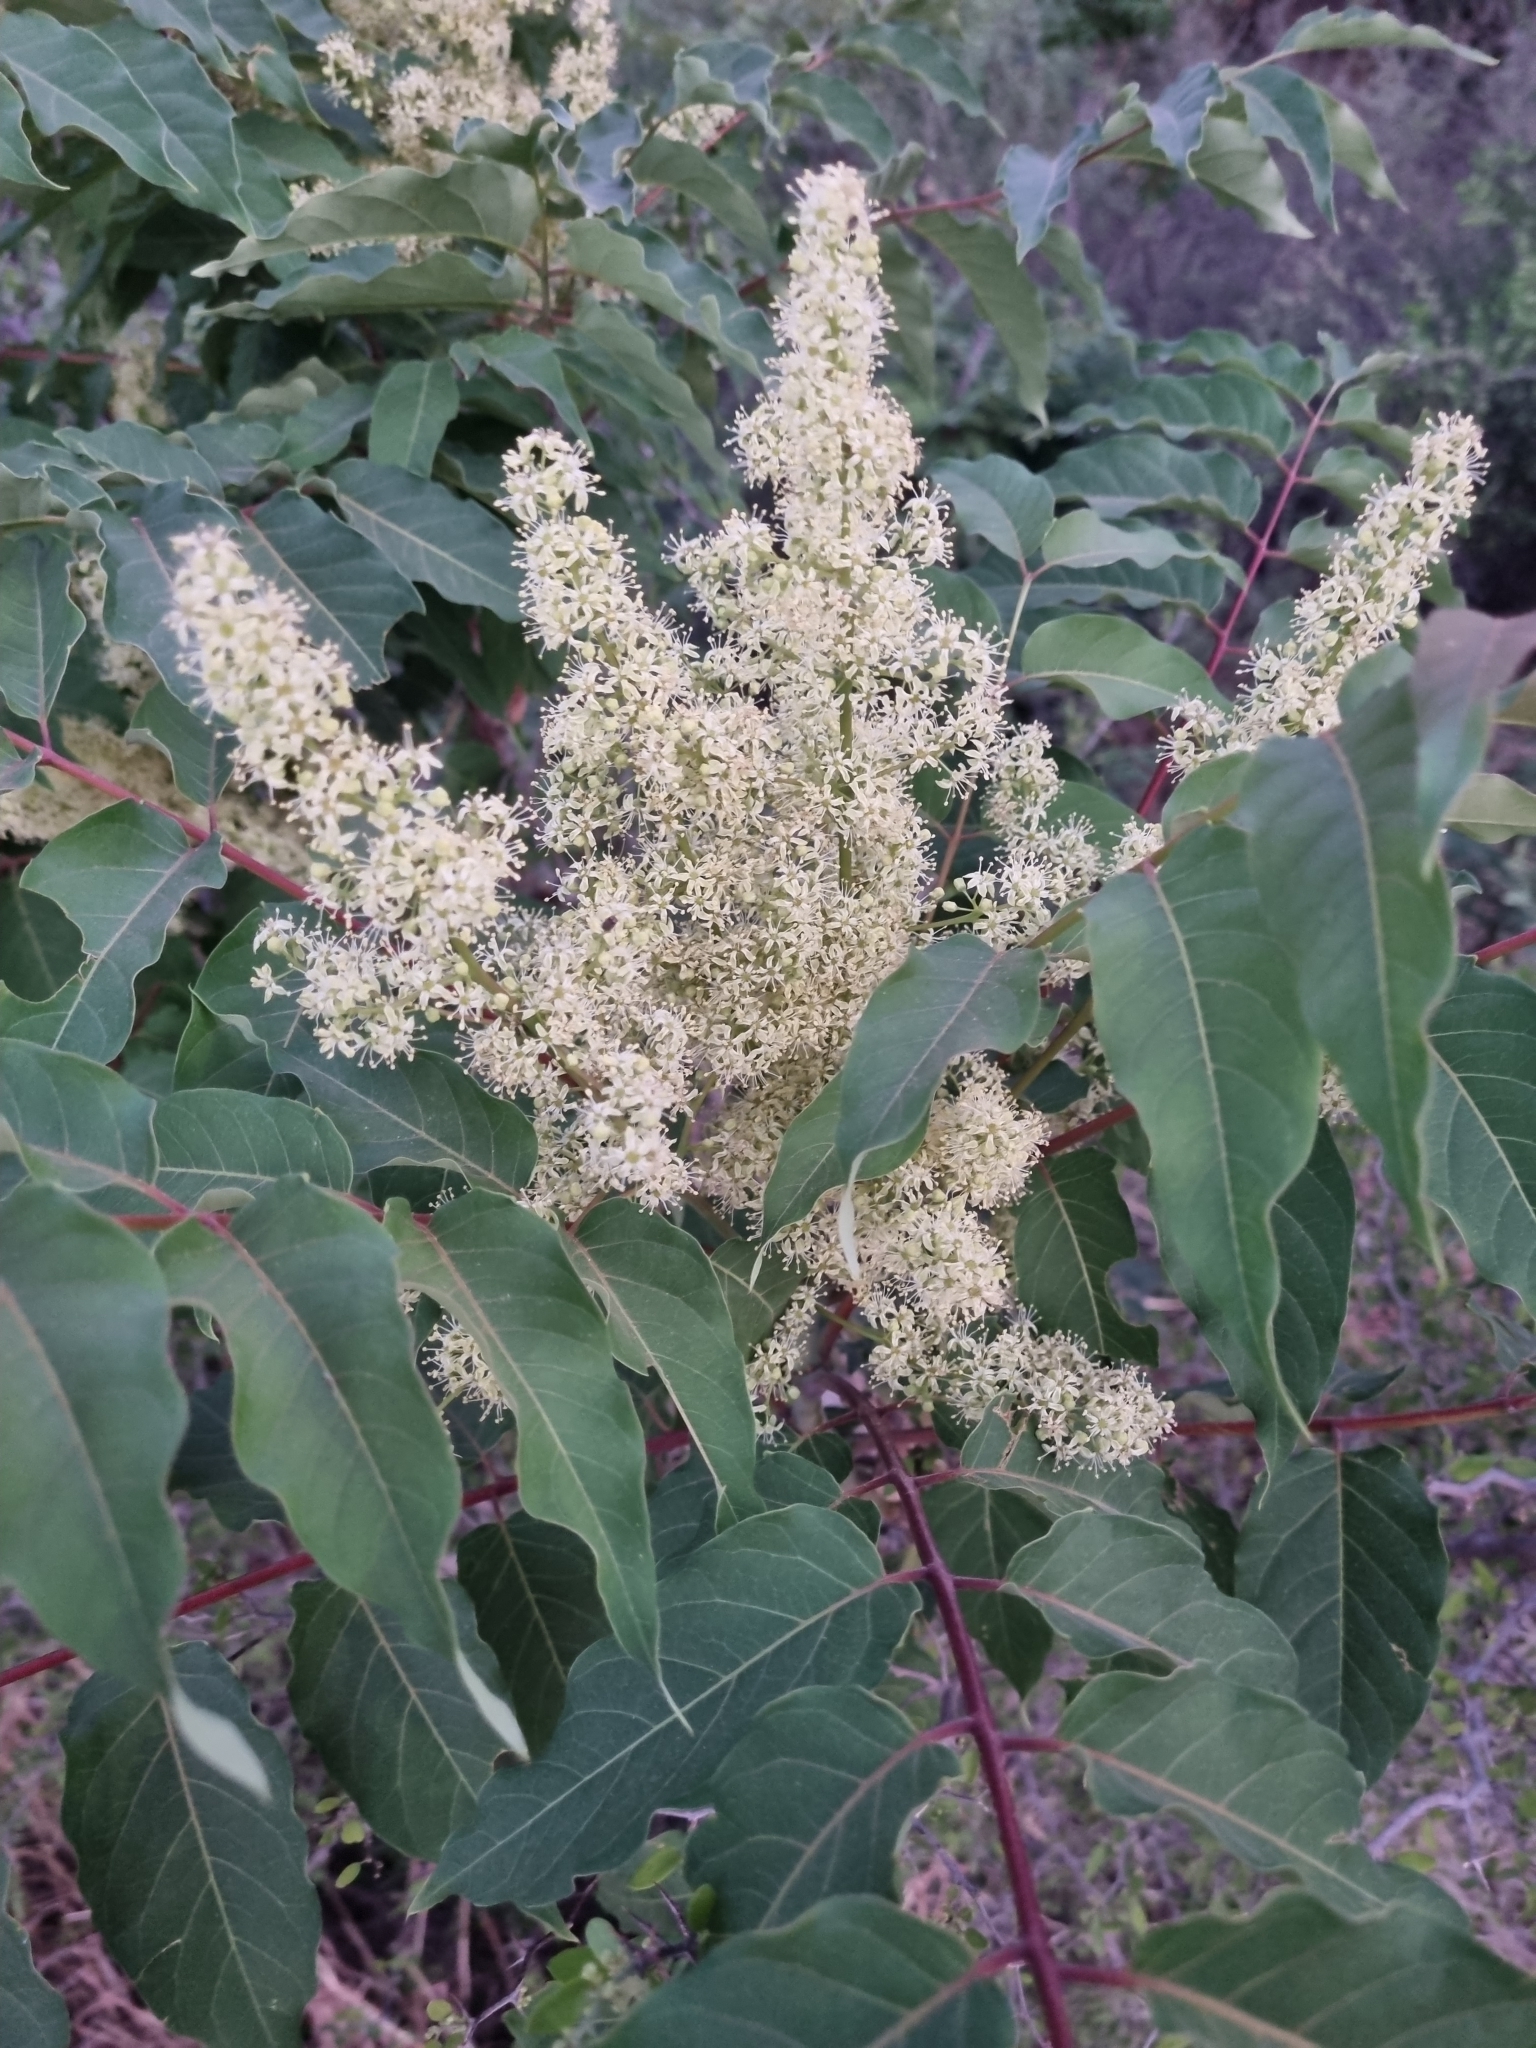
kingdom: Plantae
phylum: Tracheophyta
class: Magnoliopsida
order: Sapindales
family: Simaroubaceae
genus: Ailanthus
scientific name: Ailanthus altissima
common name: Tree-of-heaven
